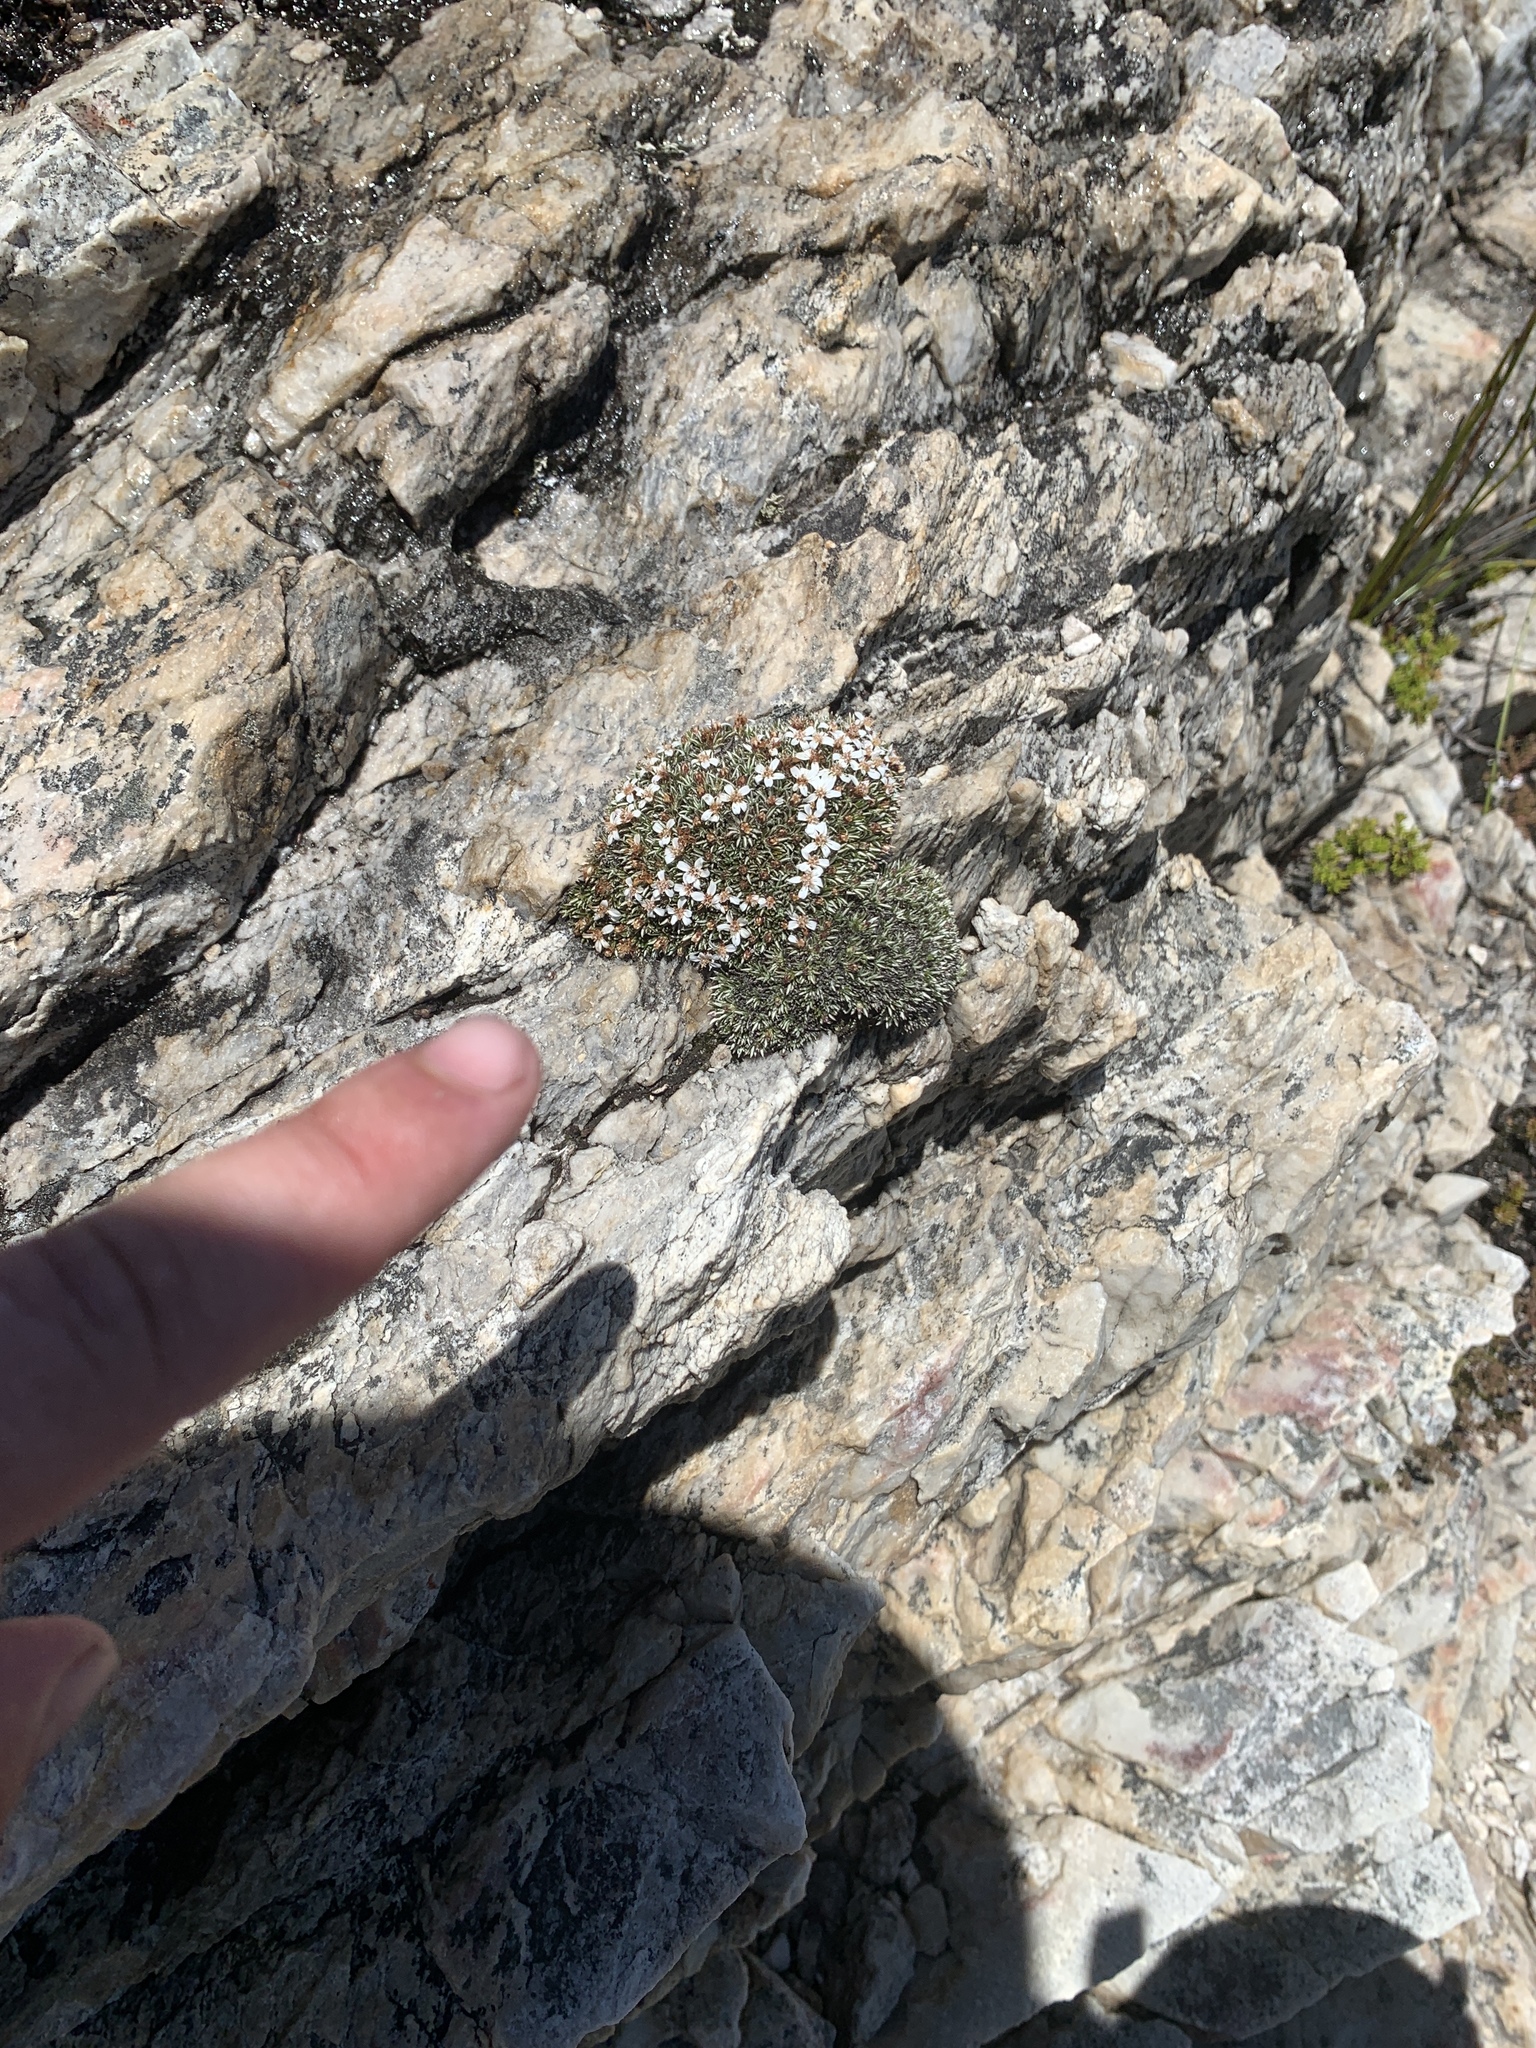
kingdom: Plantae
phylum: Tracheophyta
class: Magnoliopsida
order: Asterales
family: Asteraceae
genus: Muscosomorphe
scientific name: Muscosomorphe aretioides
